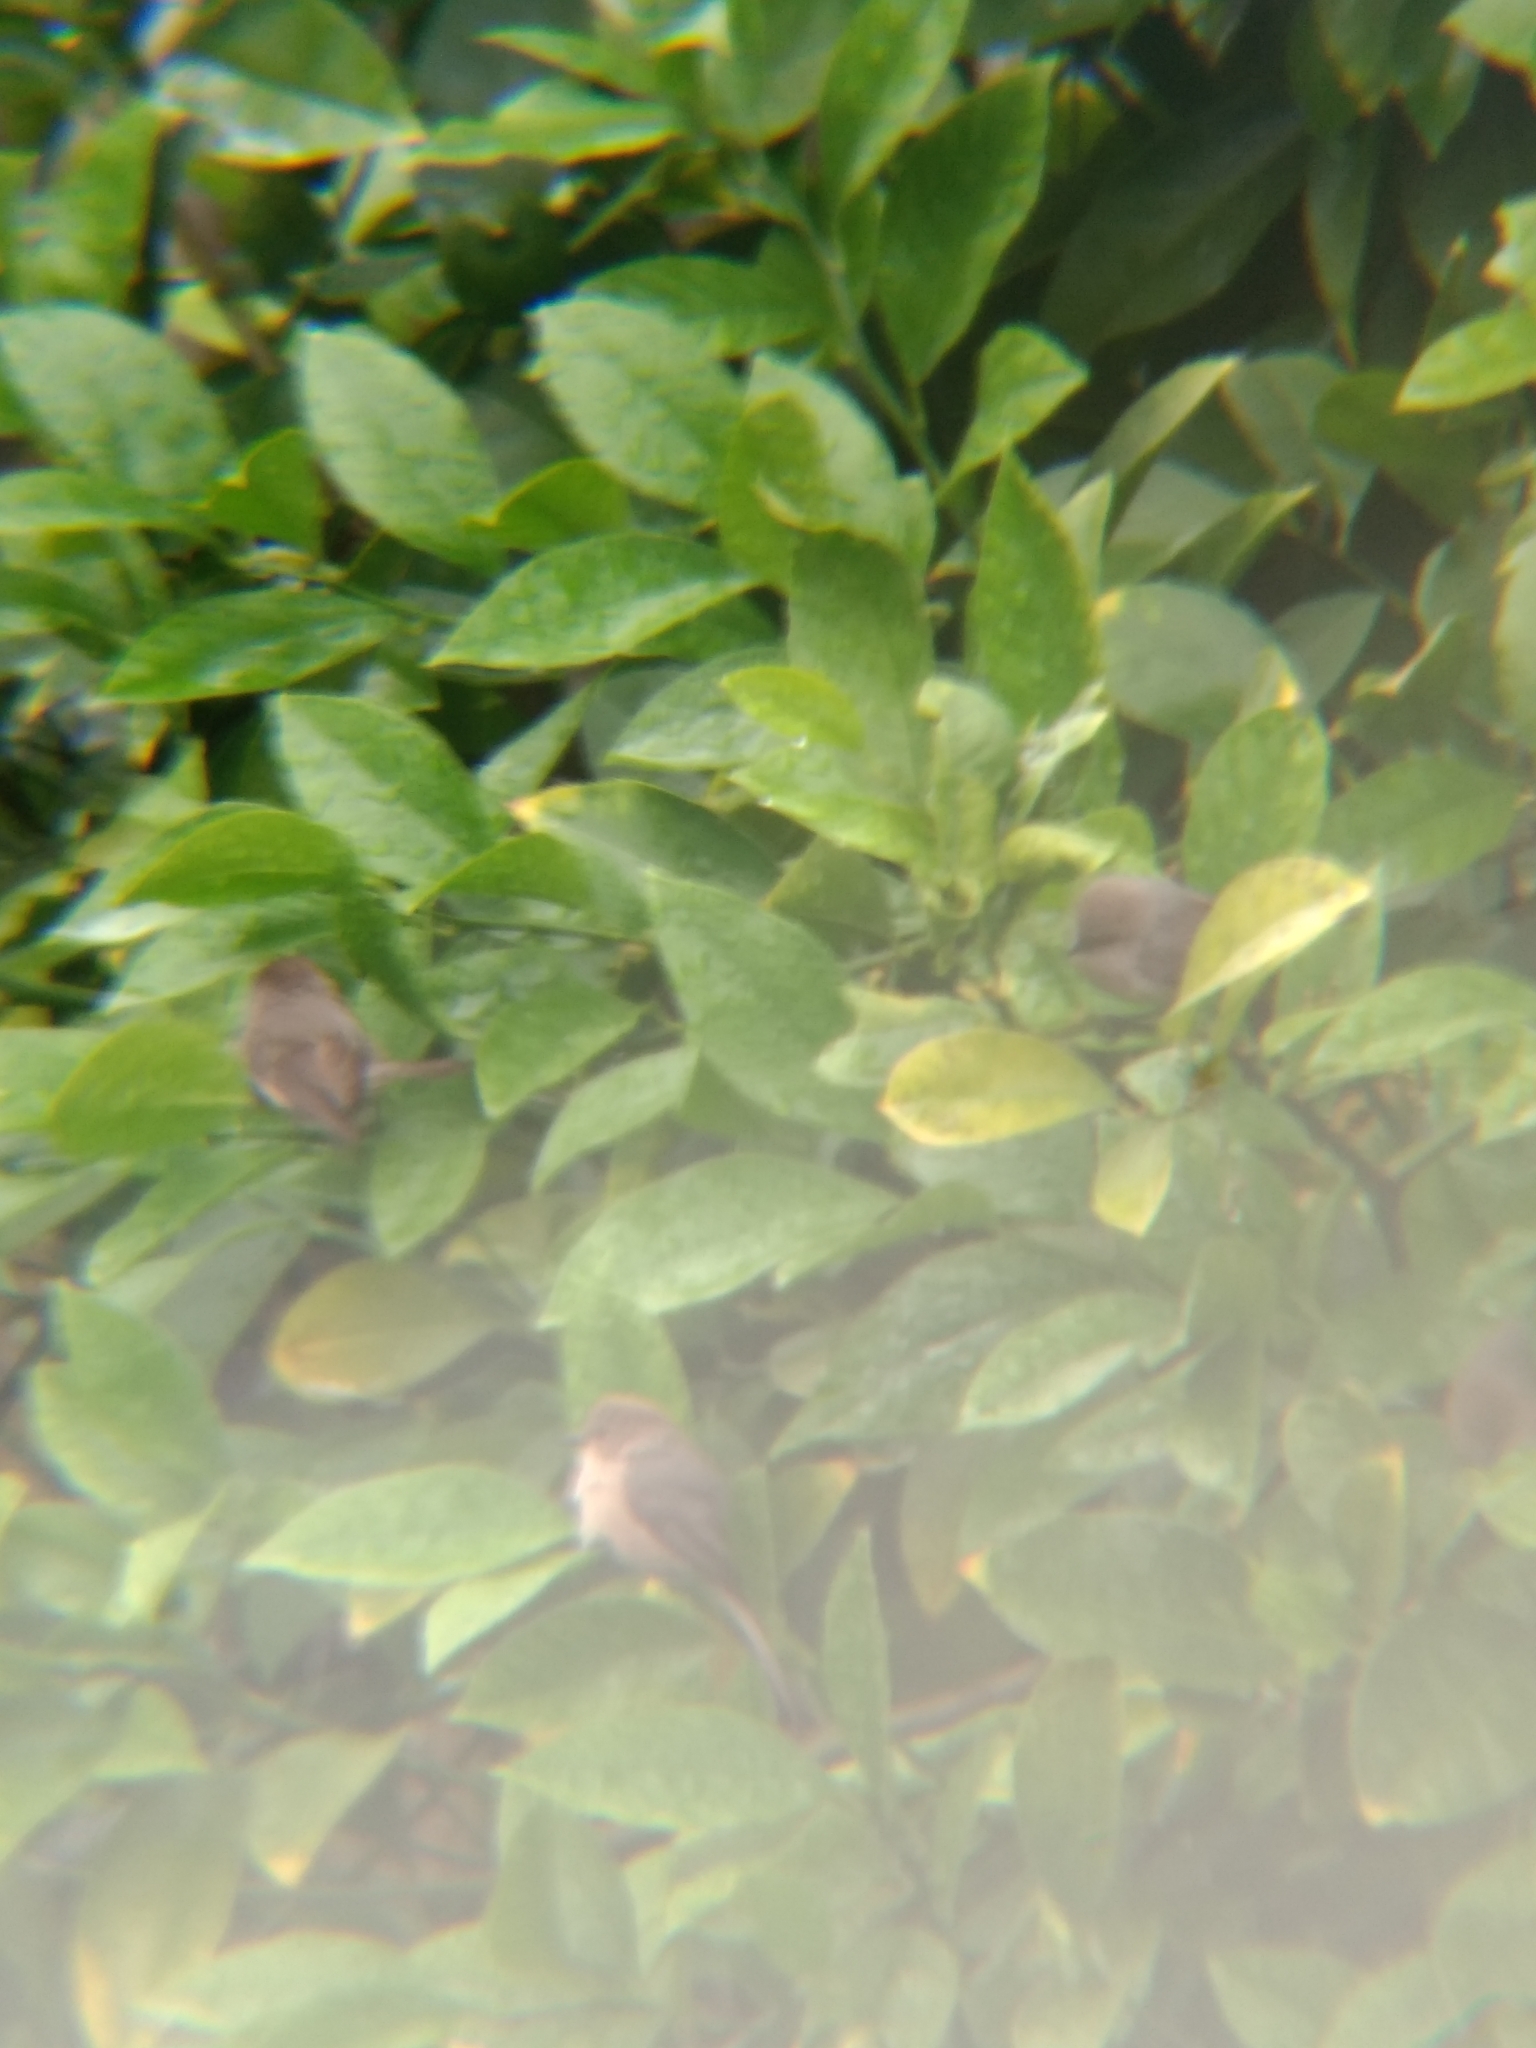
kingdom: Animalia
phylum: Chordata
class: Aves
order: Passeriformes
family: Aegithalidae
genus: Psaltriparus
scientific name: Psaltriparus minimus
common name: American bushtit
